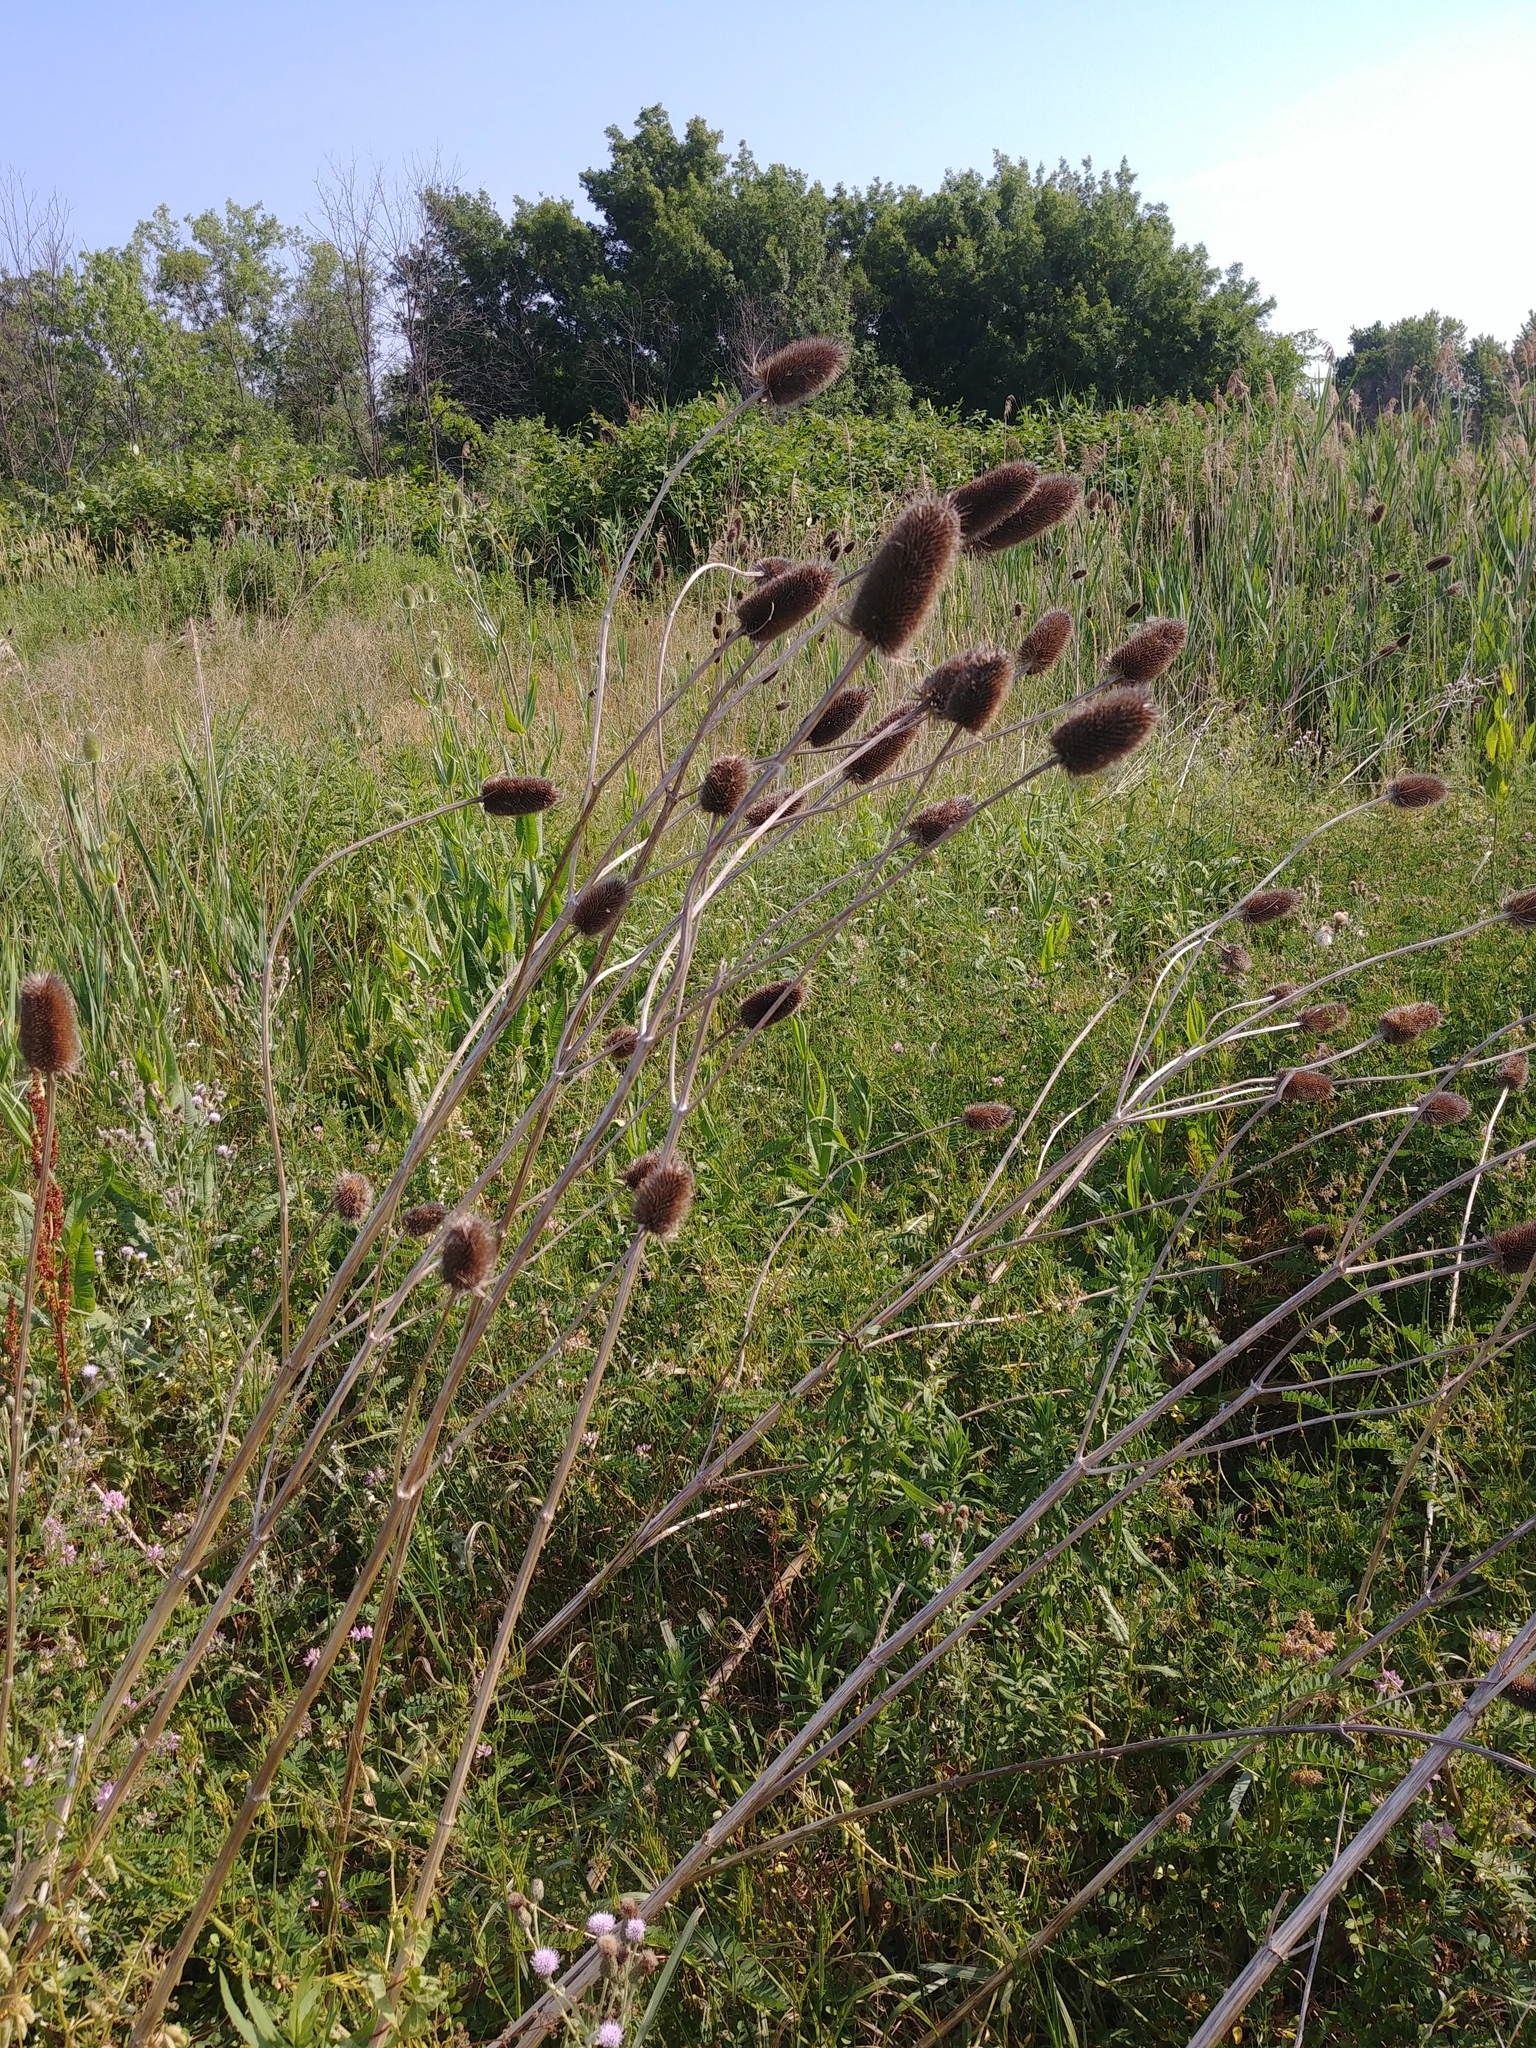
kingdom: Plantae
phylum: Tracheophyta
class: Magnoliopsida
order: Dipsacales
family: Caprifoliaceae
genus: Dipsacus
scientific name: Dipsacus fullonum
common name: Teasel
